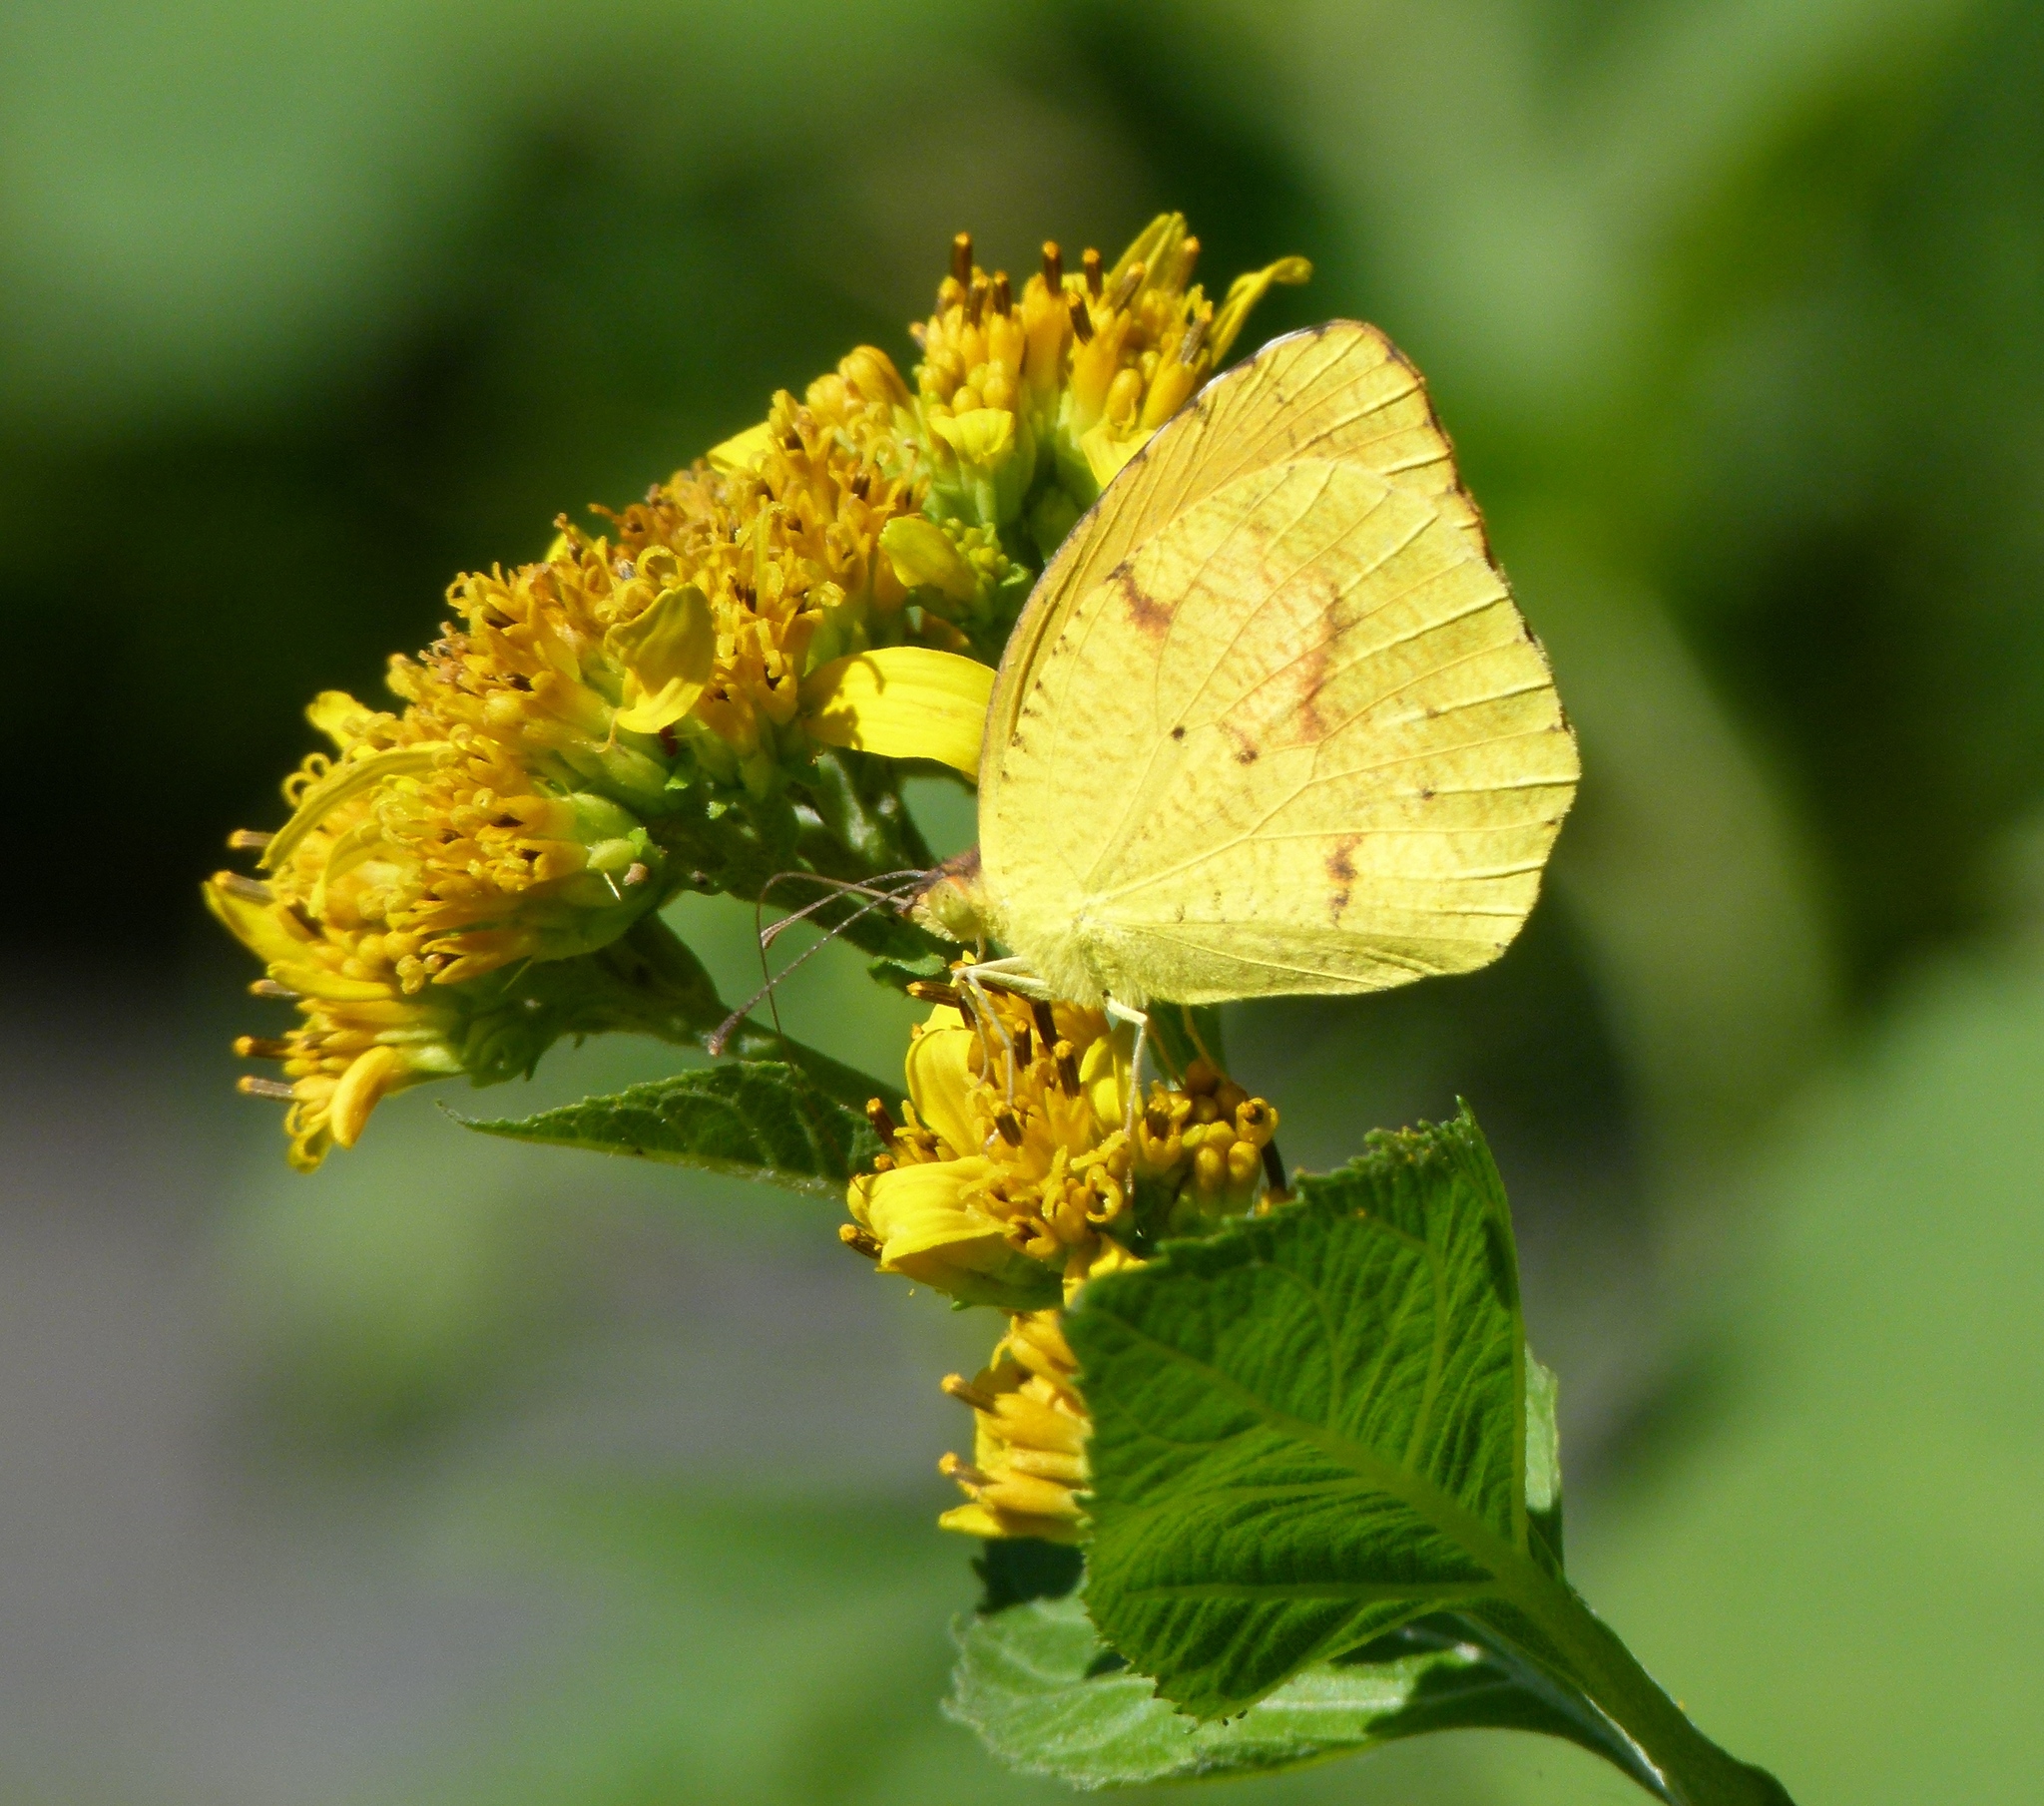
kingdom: Animalia
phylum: Arthropoda
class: Insecta
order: Lepidoptera
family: Pieridae
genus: Abaeis
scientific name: Abaeis nicippe
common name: Sleepy orange
